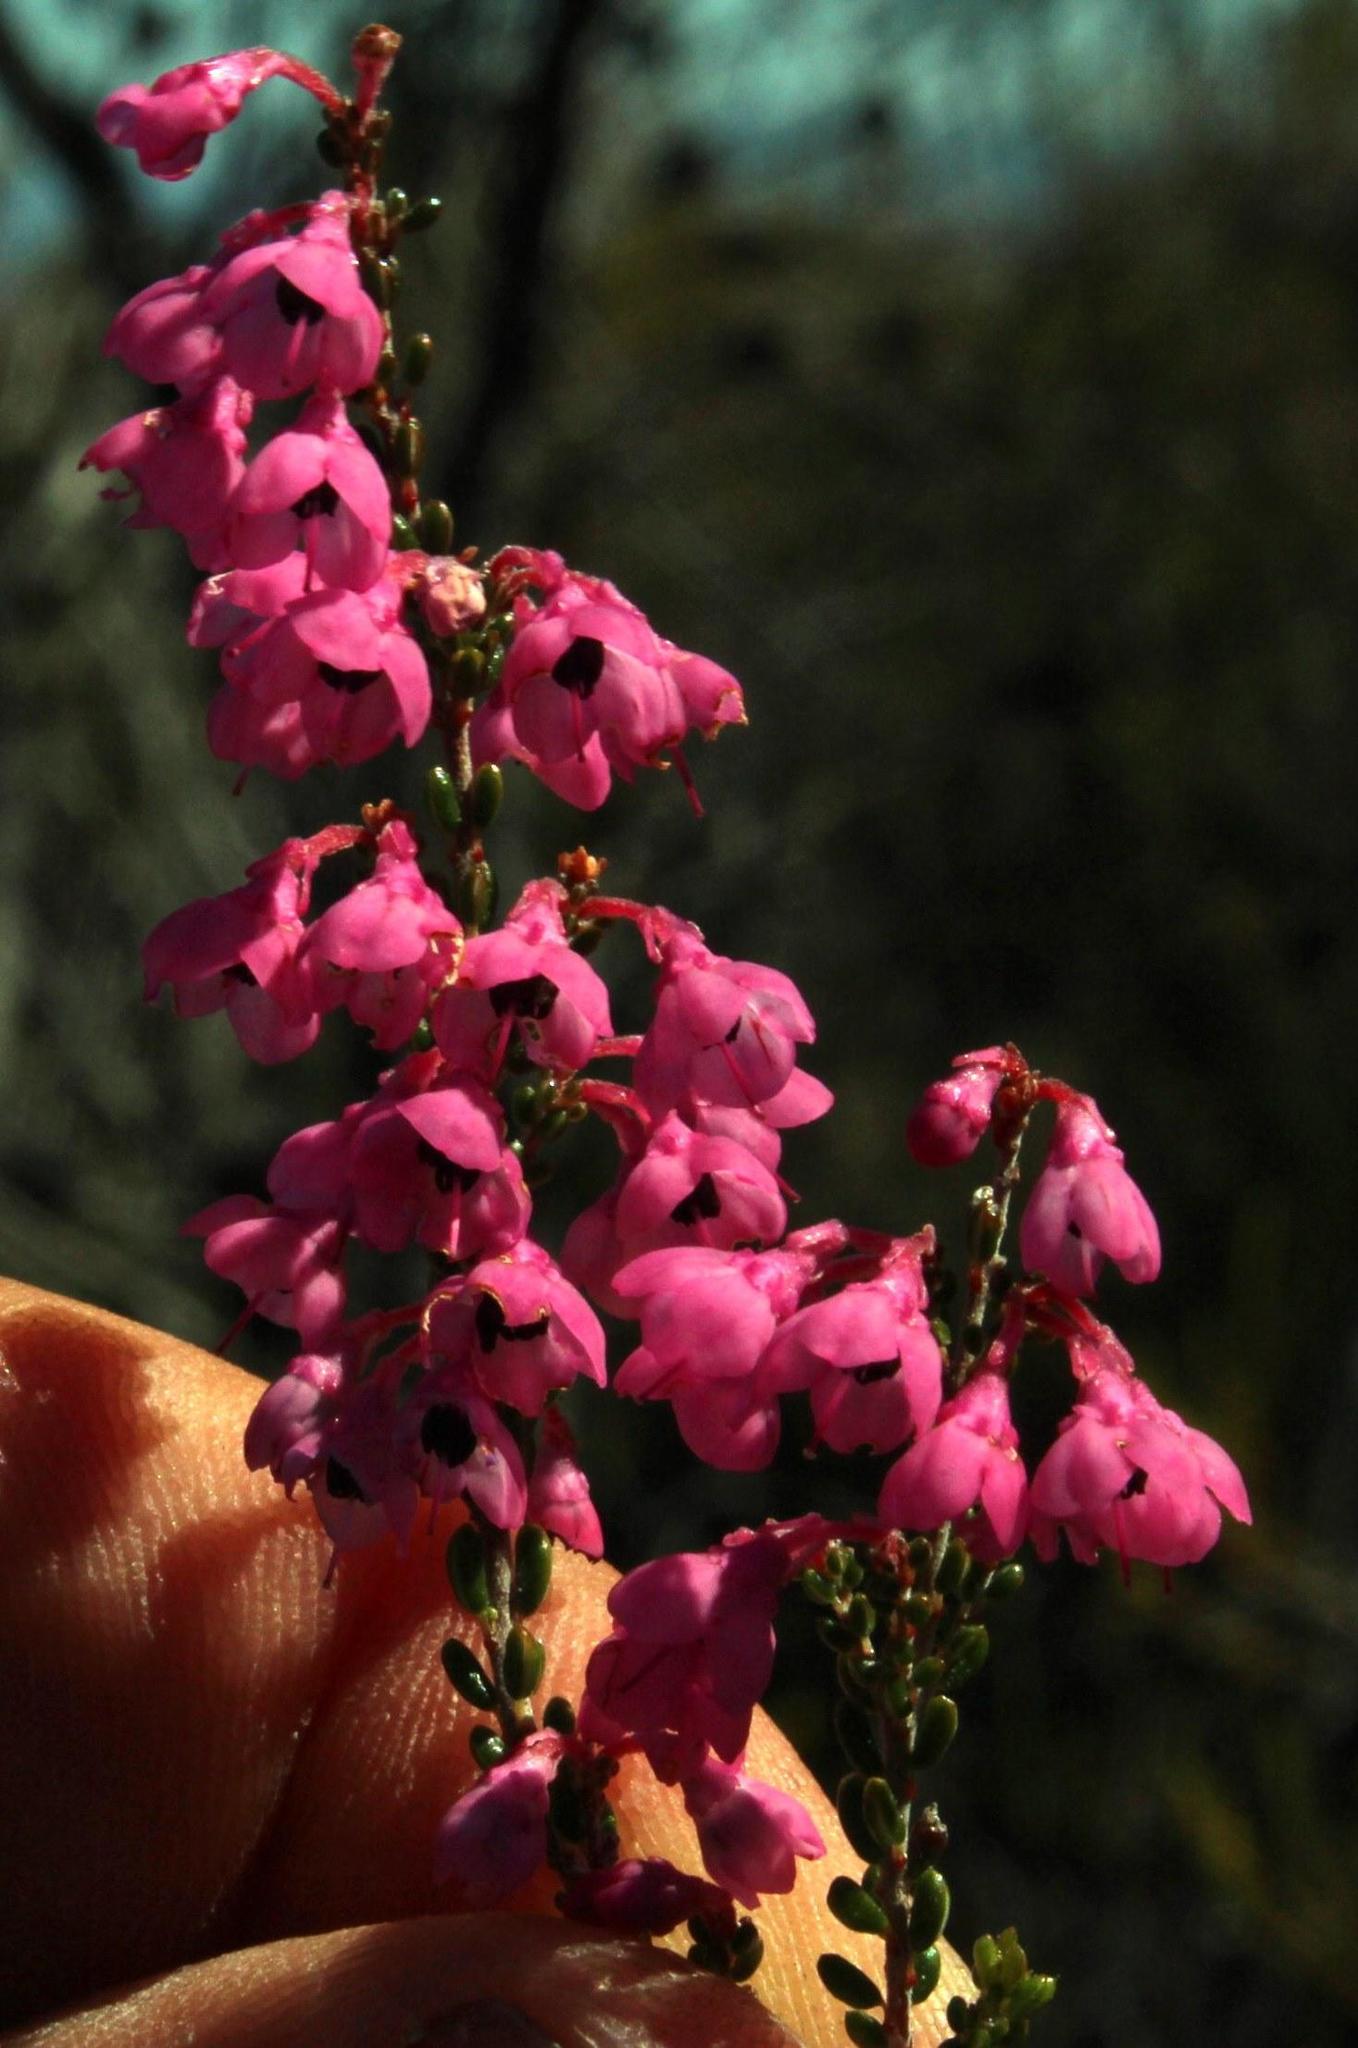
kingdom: Plantae
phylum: Tracheophyta
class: Magnoliopsida
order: Ericales
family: Ericaceae
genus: Erica
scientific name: Erica melanthera
